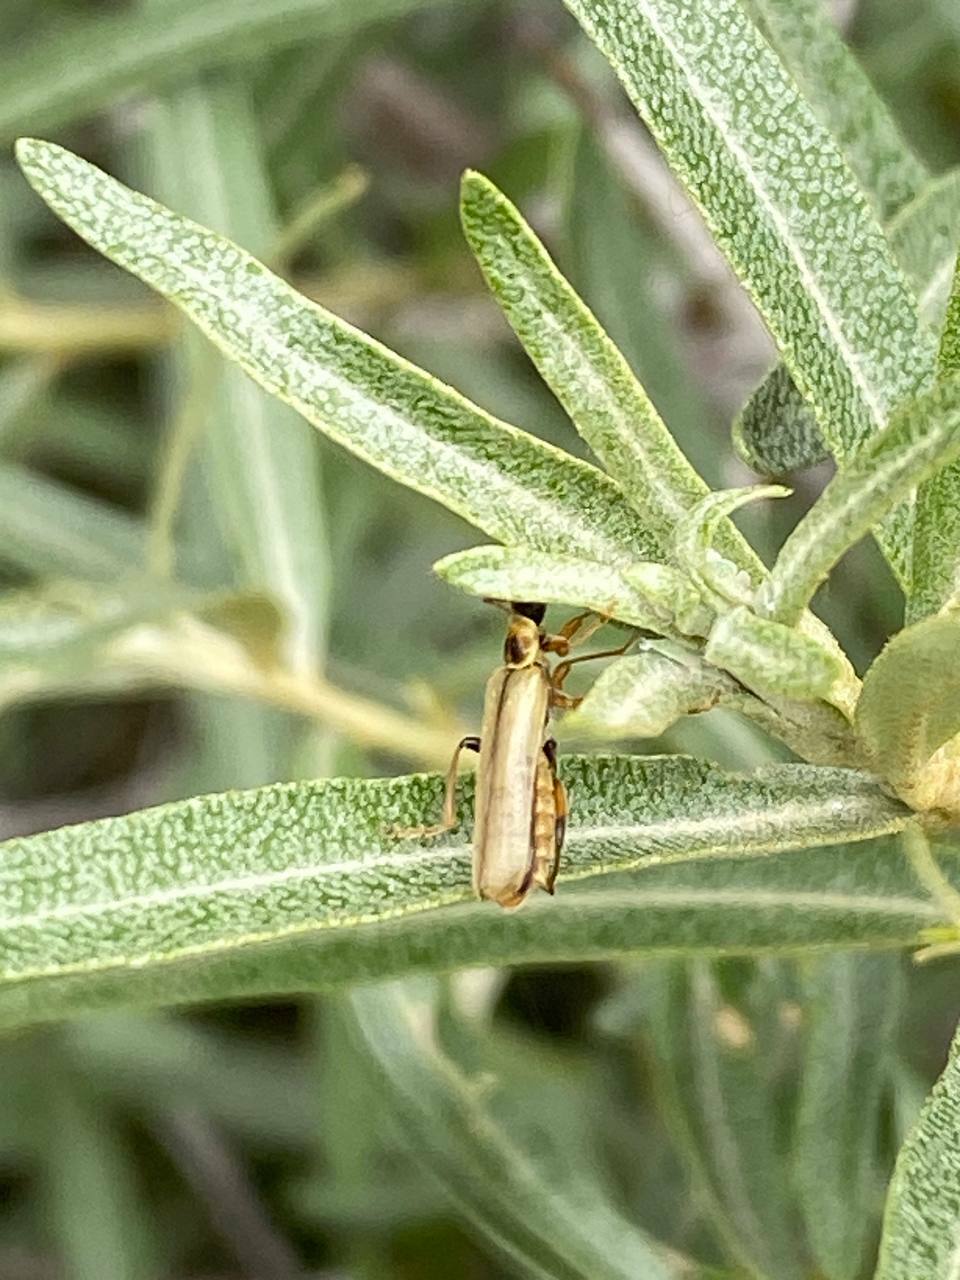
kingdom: Animalia
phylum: Arthropoda
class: Insecta
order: Coleoptera
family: Cantharidae
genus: Metacantharis
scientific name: Metacantharis clypeata
